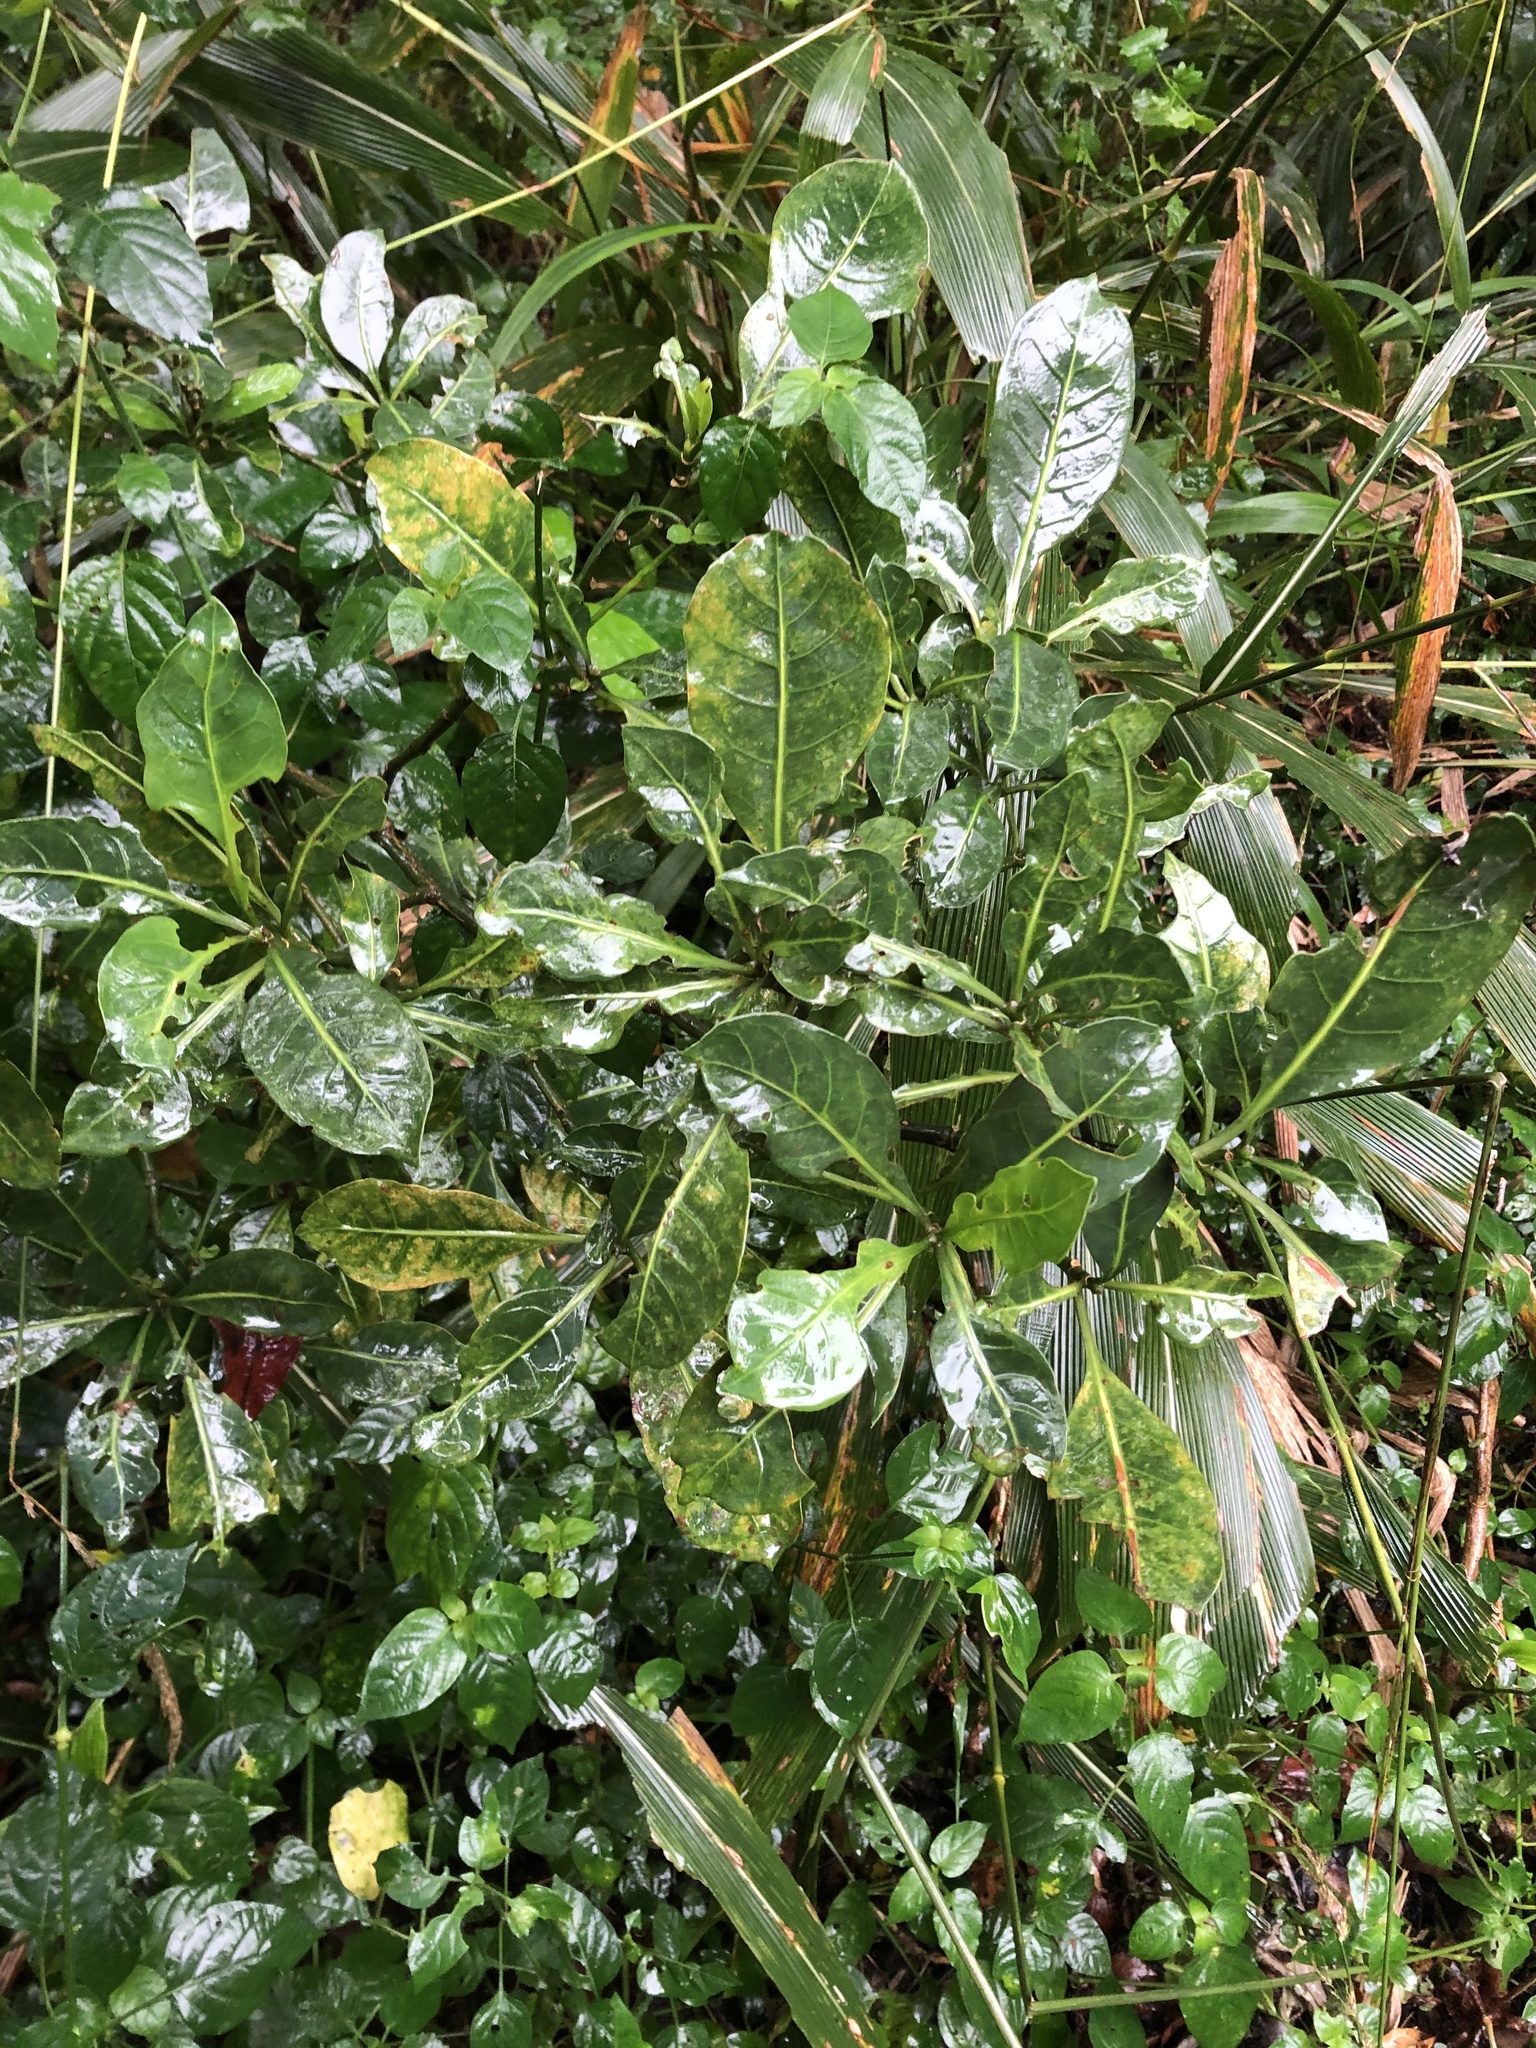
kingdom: Plantae
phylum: Tracheophyta
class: Magnoliopsida
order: Gentianales
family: Rubiaceae
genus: Psychotria
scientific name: Psychotria capensis
